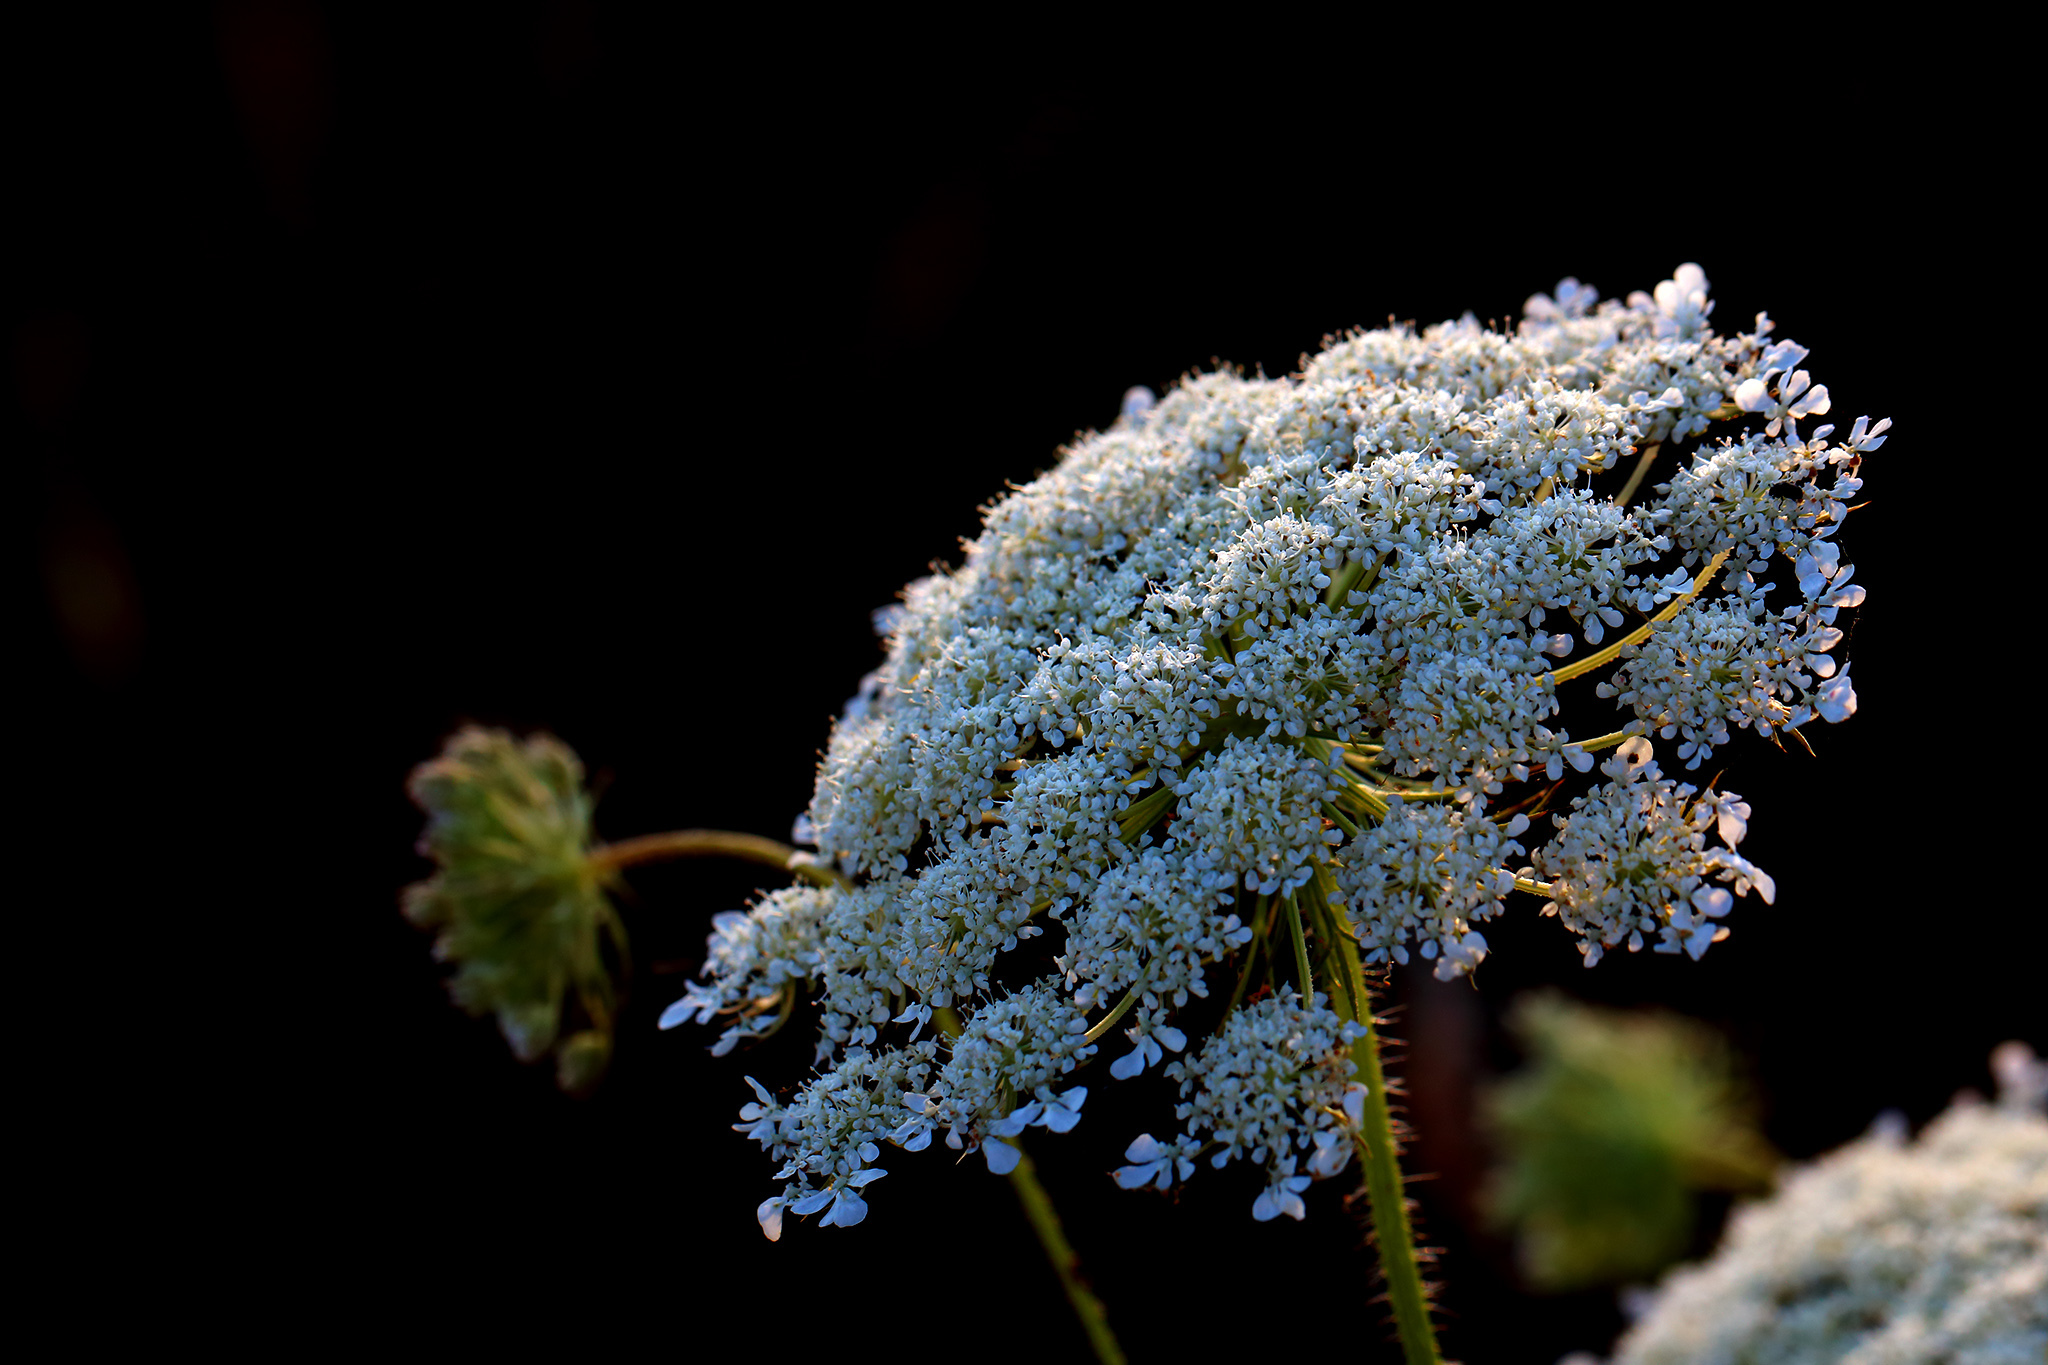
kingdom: Plantae
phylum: Tracheophyta
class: Magnoliopsida
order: Apiales
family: Apiaceae
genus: Daucus
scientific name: Daucus carota
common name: Wild carrot
